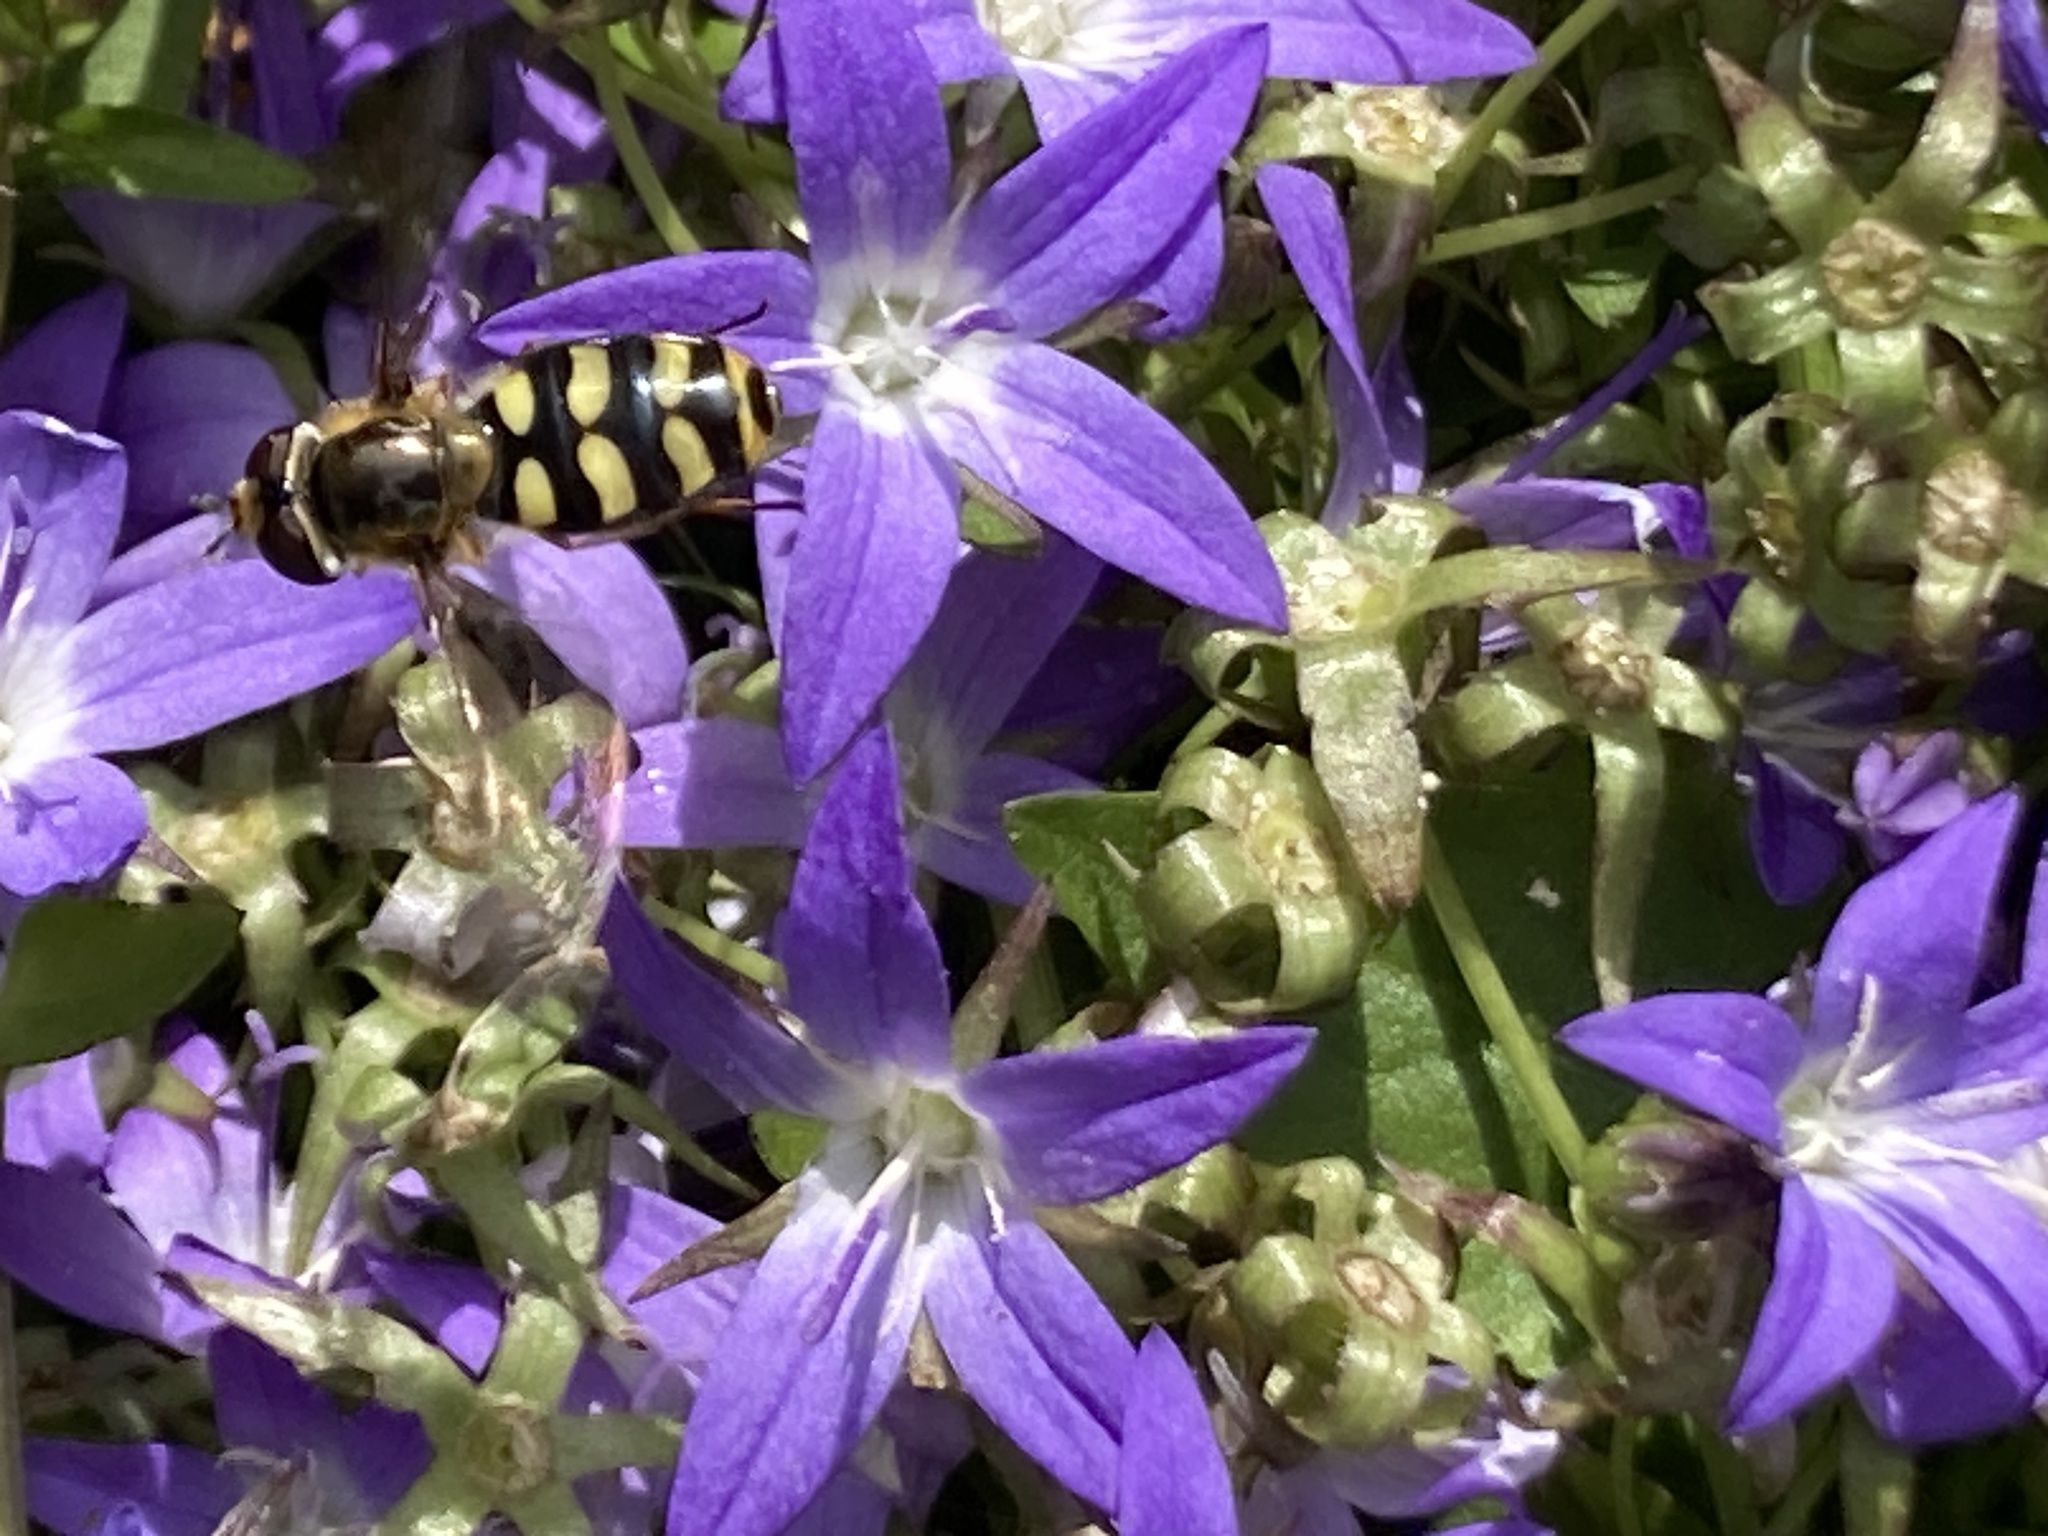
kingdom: Animalia
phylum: Arthropoda
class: Insecta
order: Diptera
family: Syrphidae
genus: Eupeodes
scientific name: Eupeodes
